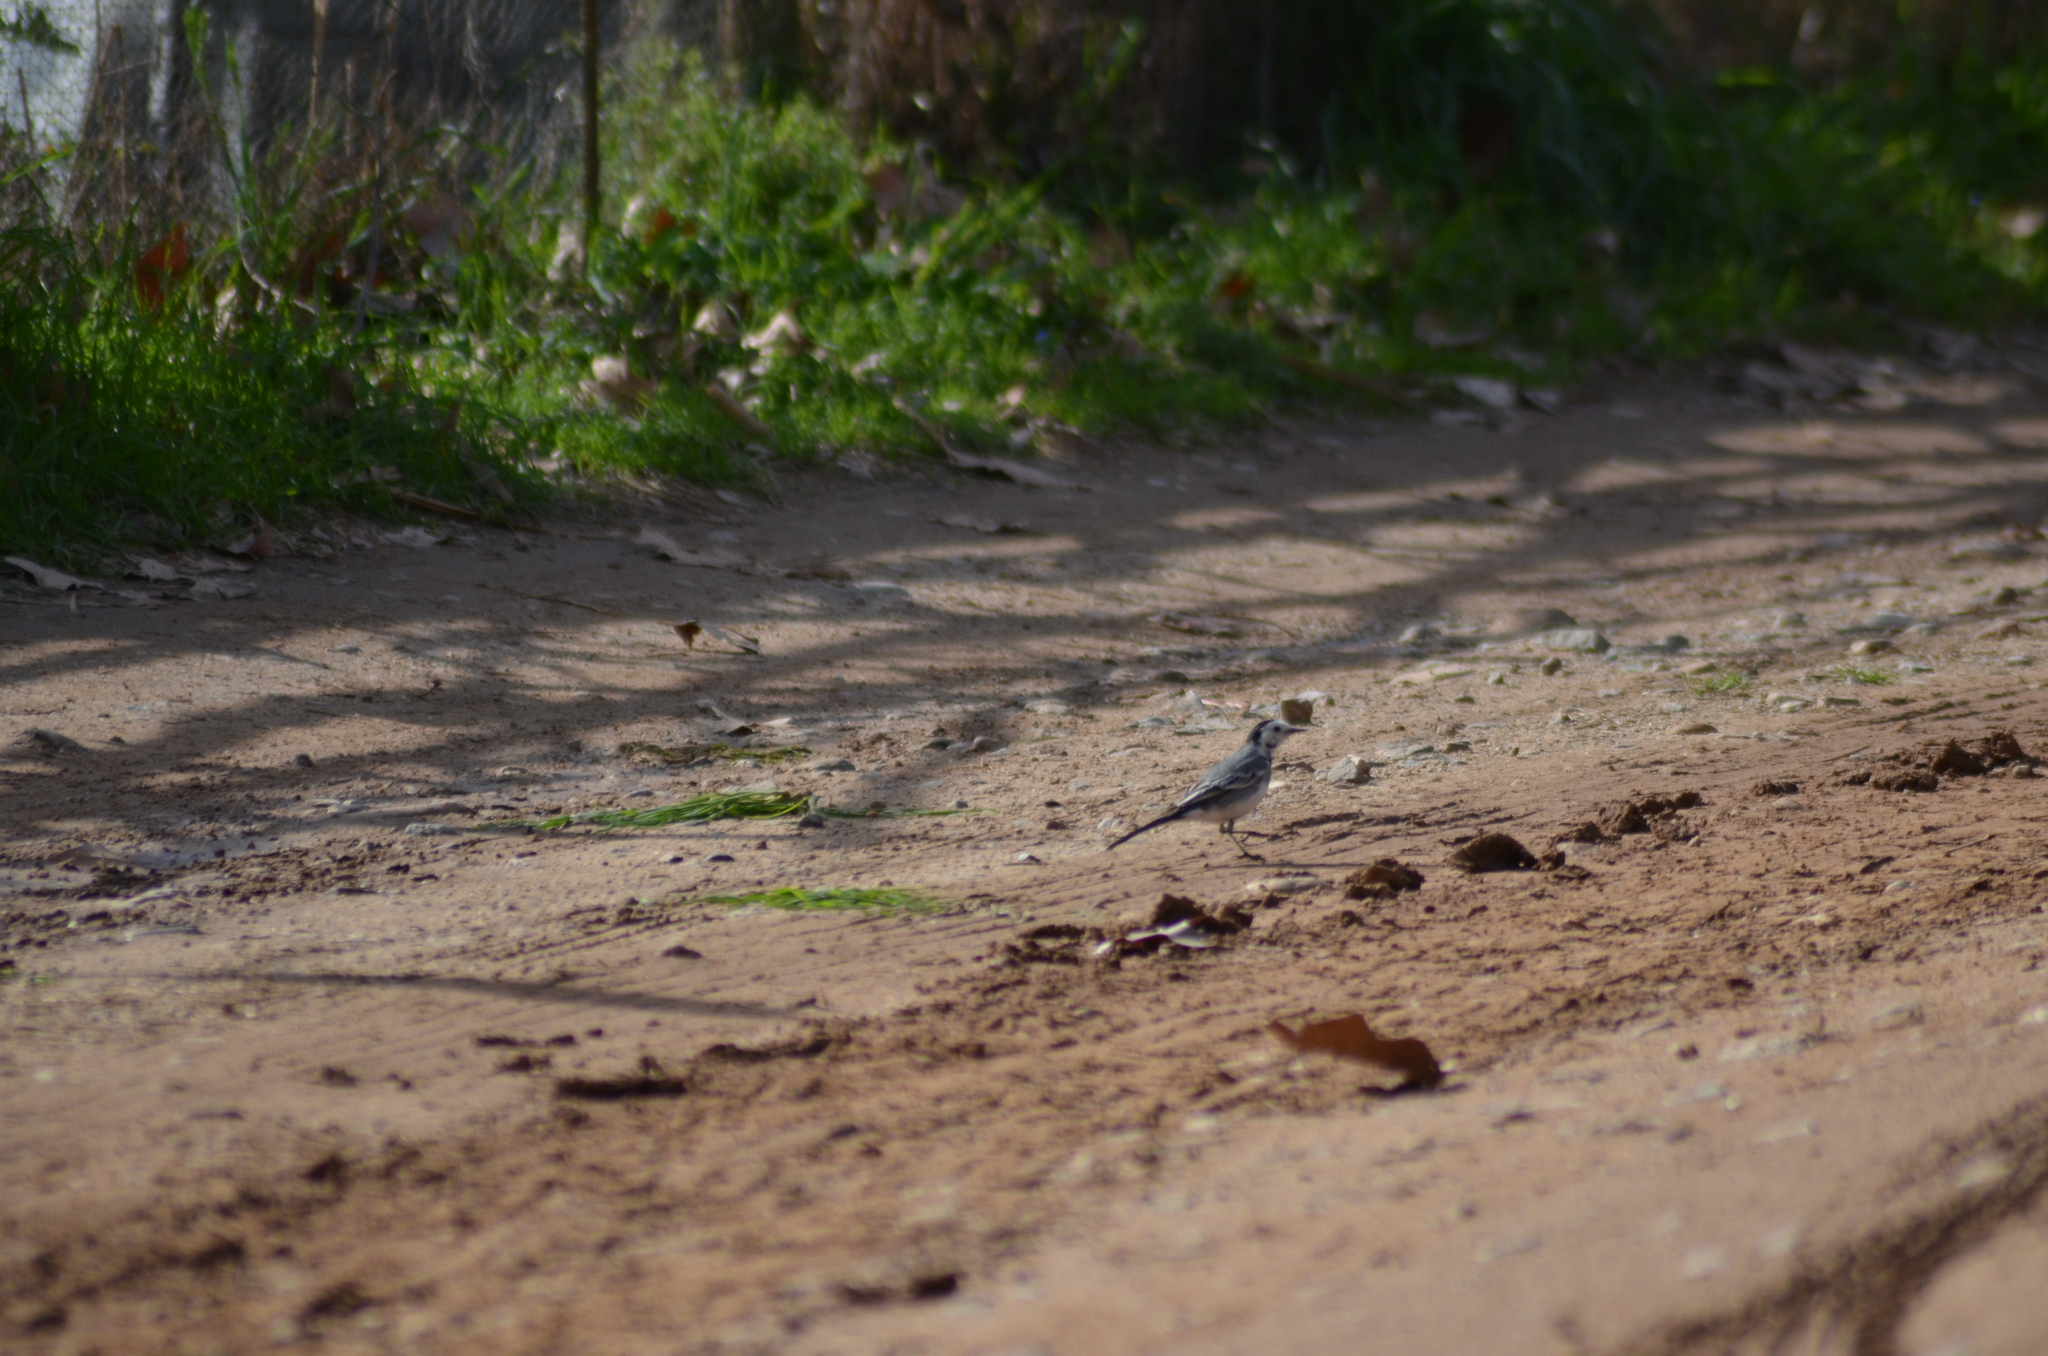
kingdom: Animalia
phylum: Chordata
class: Aves
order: Passeriformes
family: Motacillidae
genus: Motacilla
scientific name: Motacilla alba
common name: White wagtail
